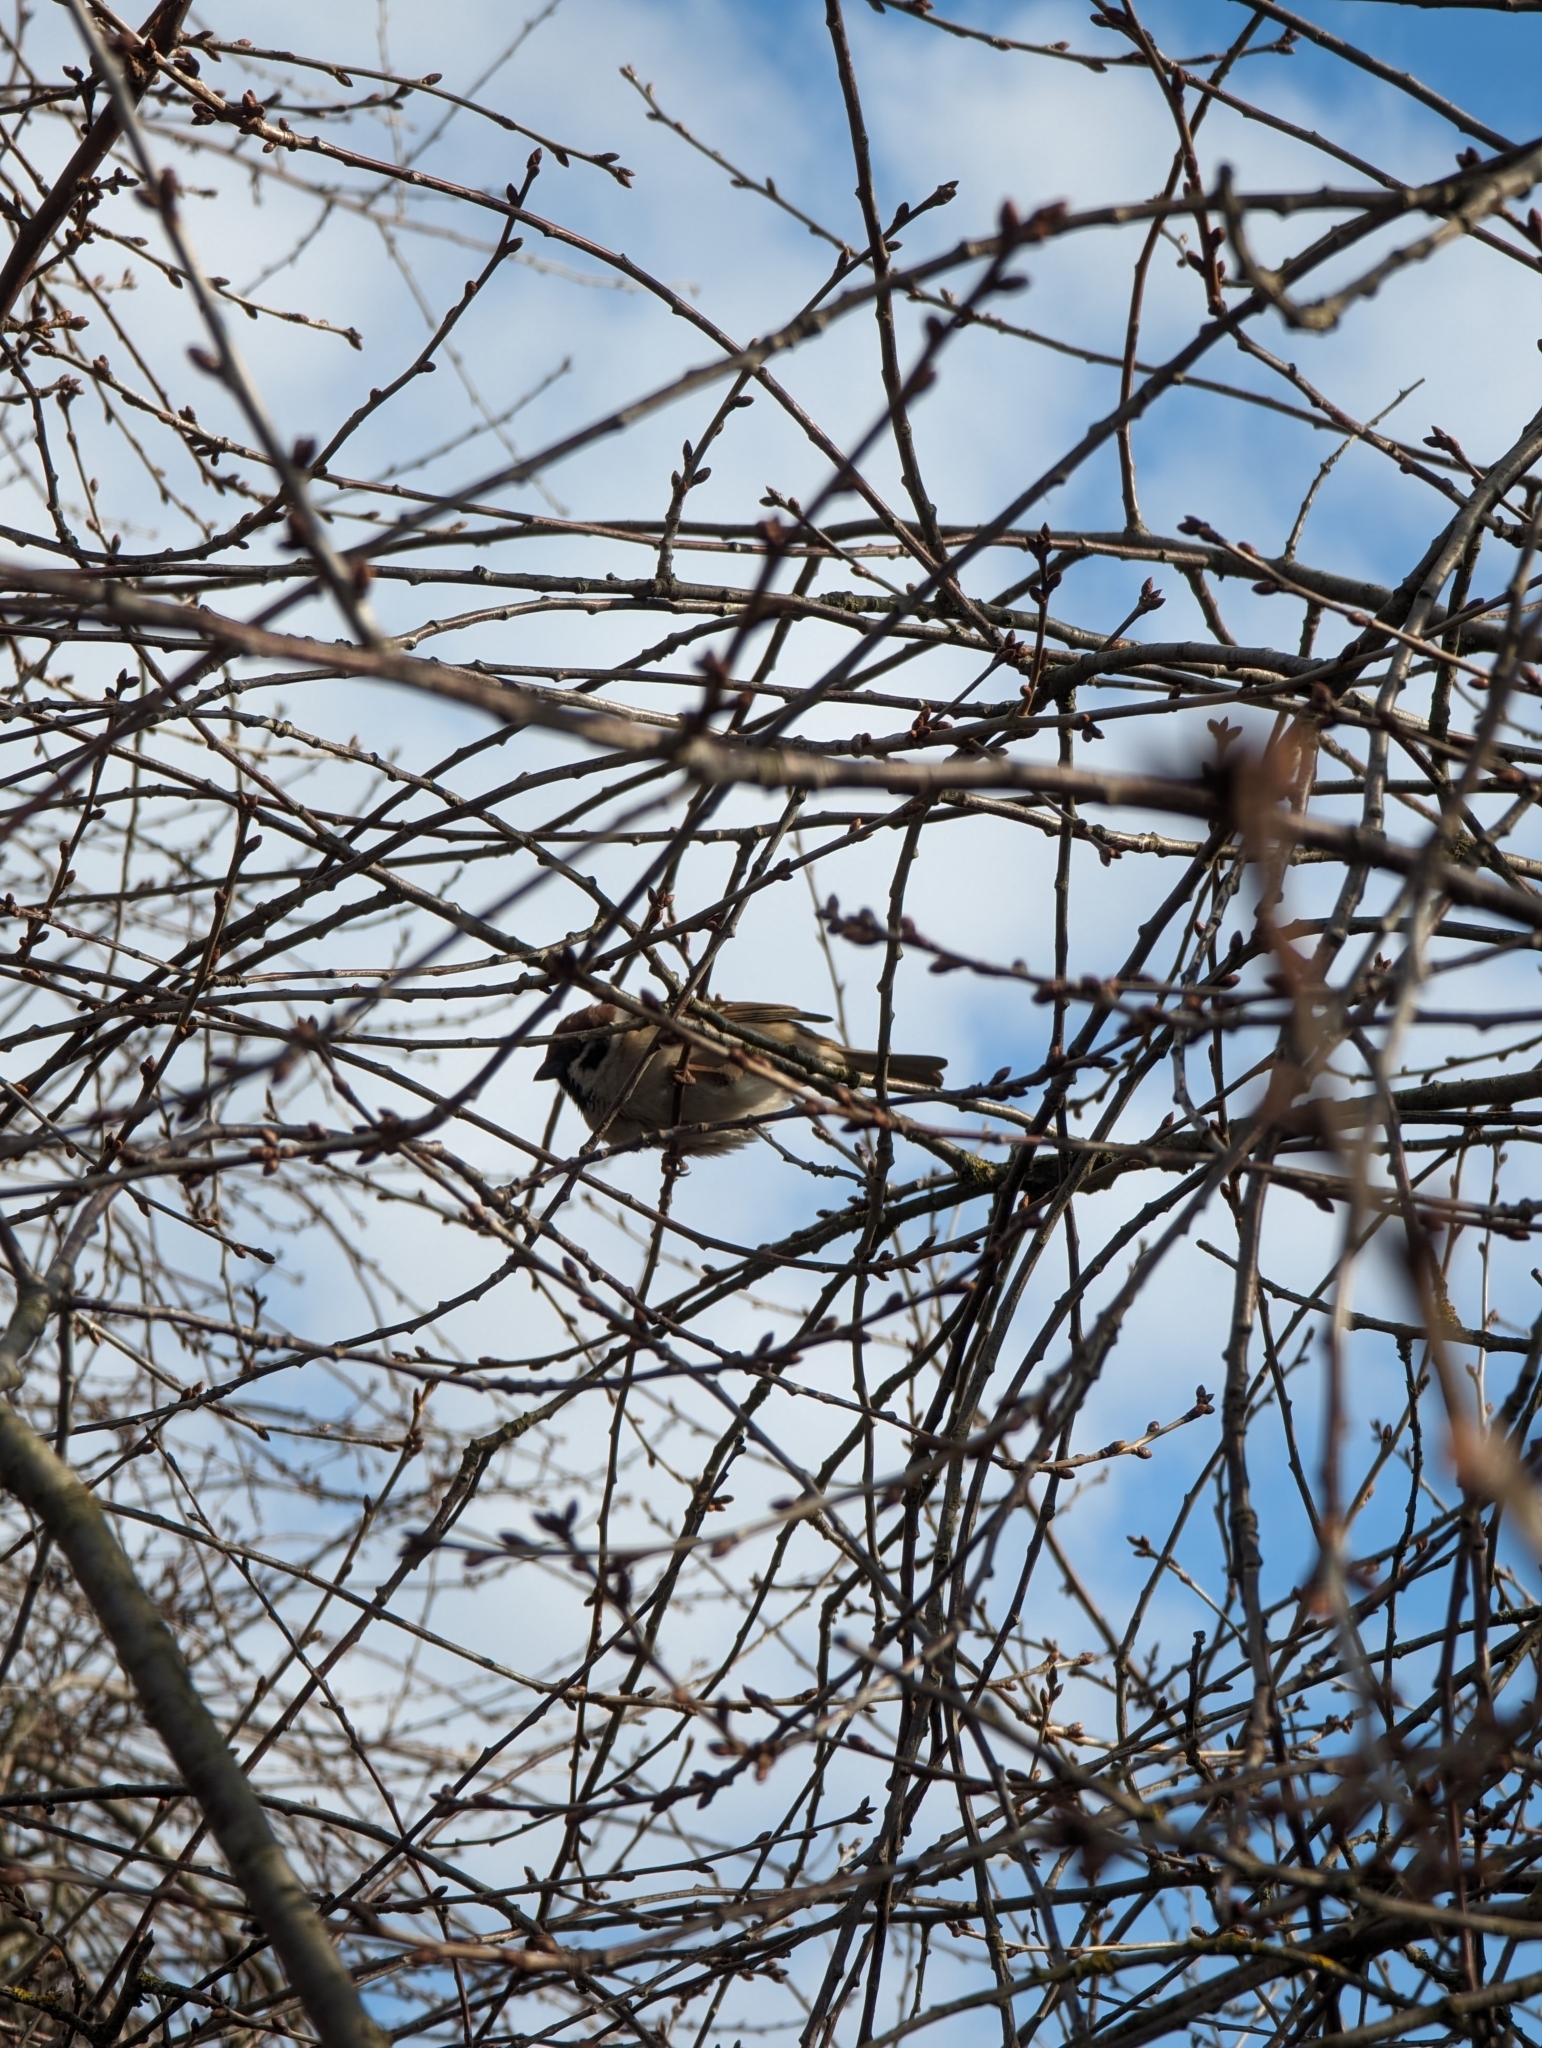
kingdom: Animalia
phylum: Chordata
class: Aves
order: Passeriformes
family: Passeridae
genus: Passer
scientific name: Passer montanus
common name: Eurasian tree sparrow
